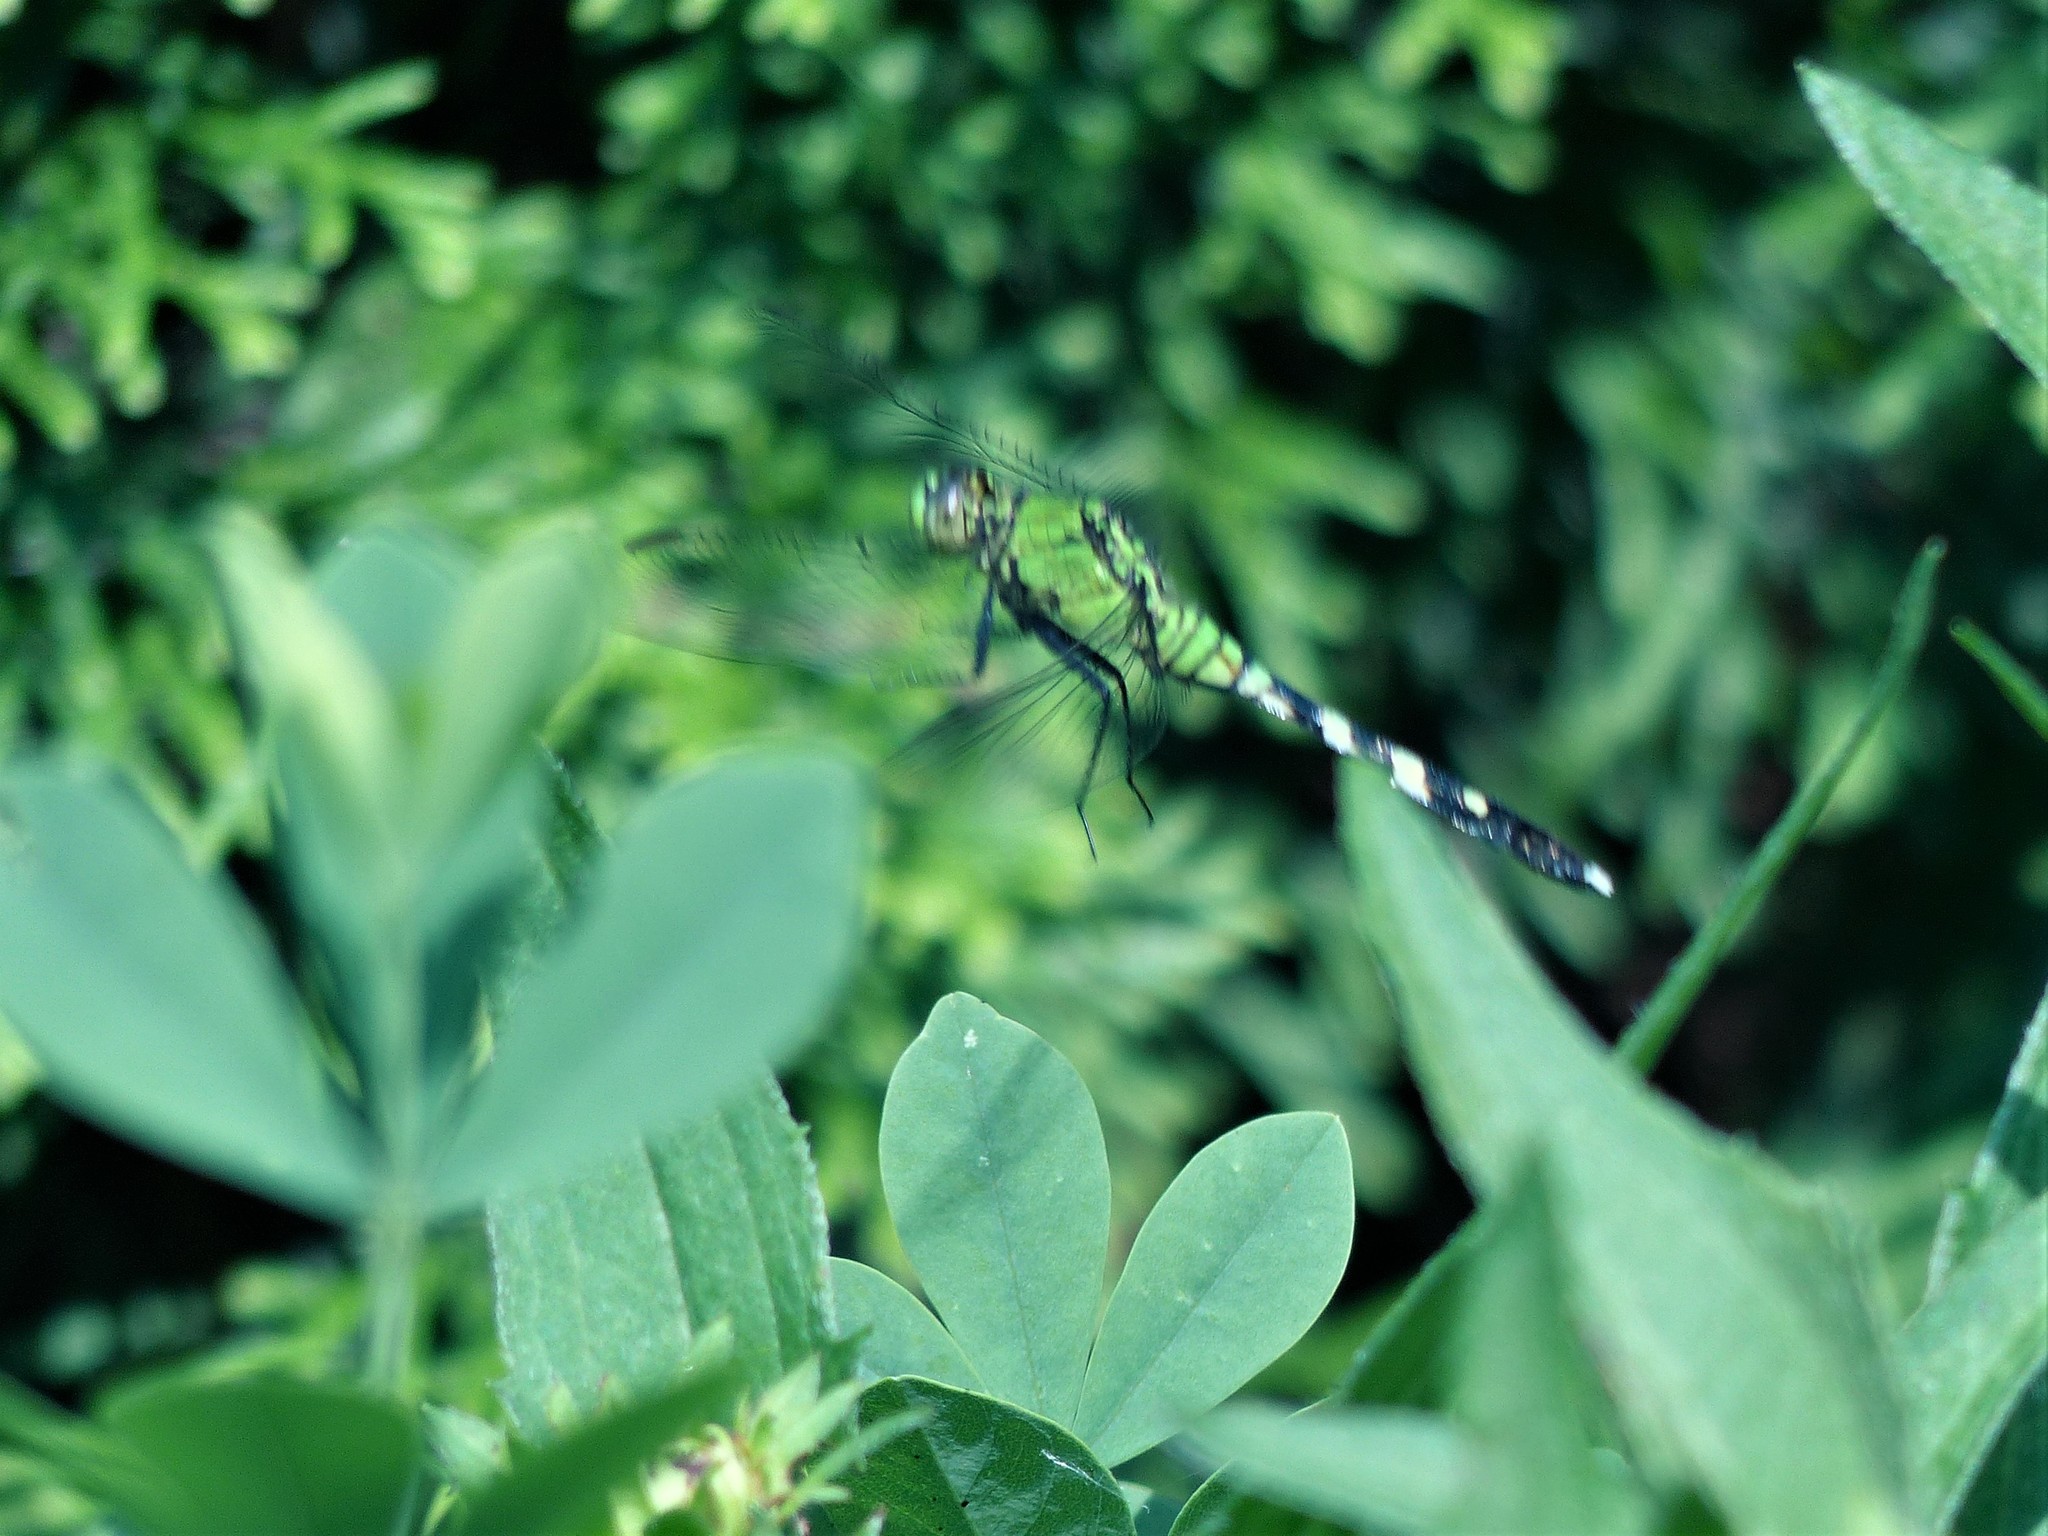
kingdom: Animalia
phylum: Arthropoda
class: Insecta
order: Odonata
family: Libellulidae
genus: Erythemis
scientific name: Erythemis simplicicollis
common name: Eastern pondhawk
